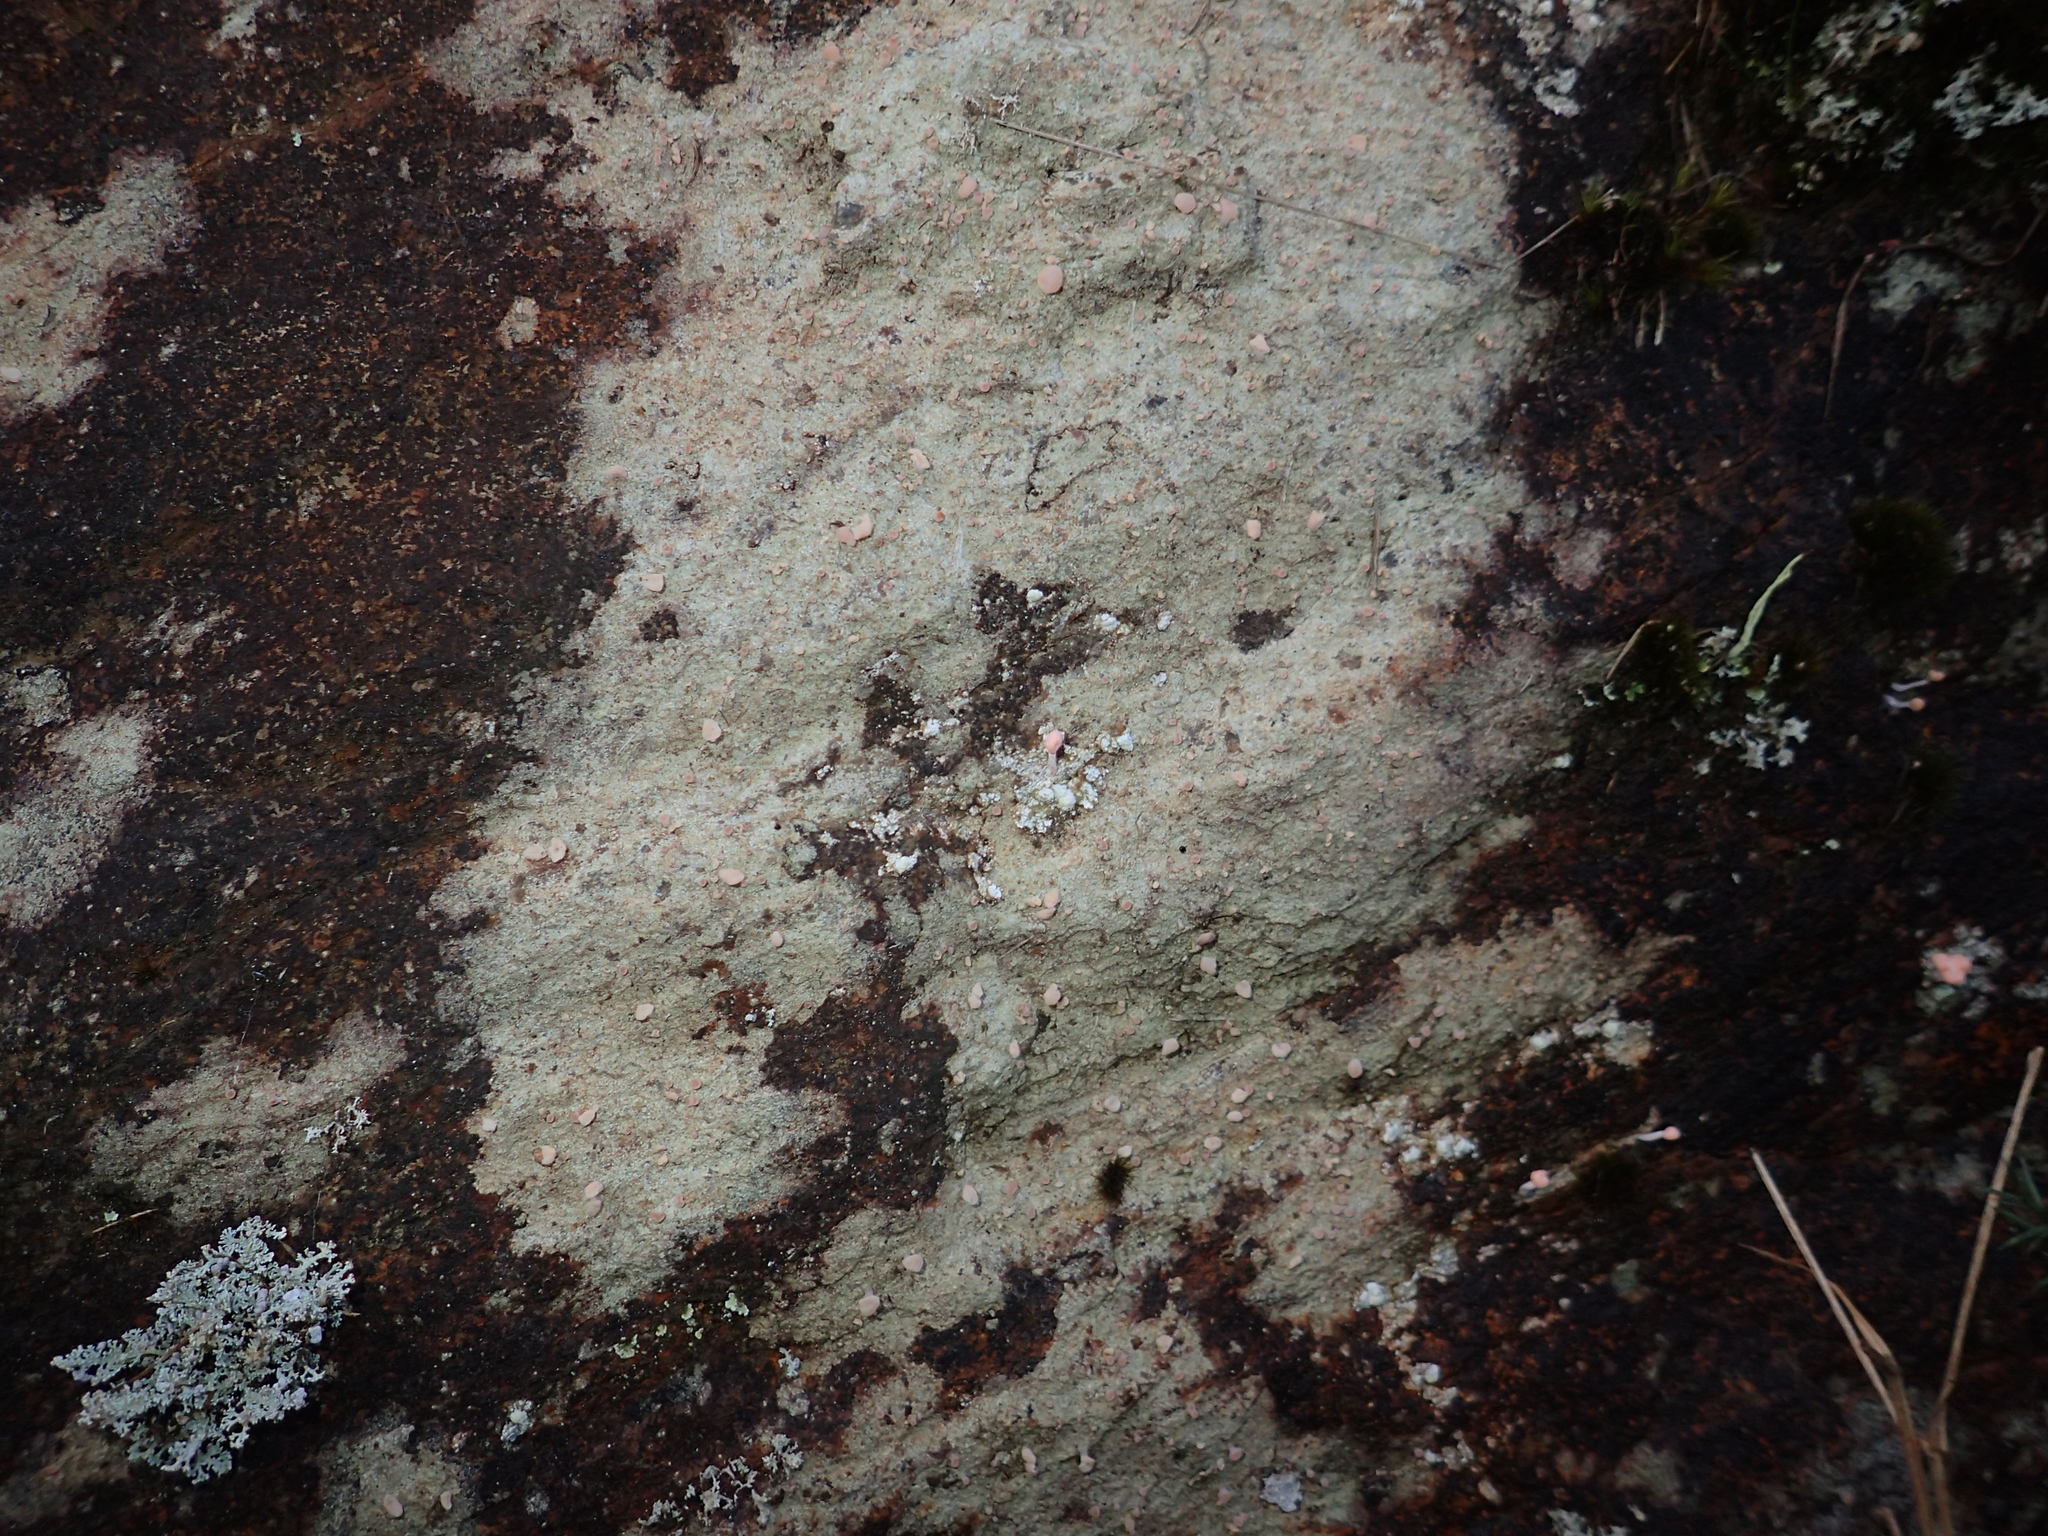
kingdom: Fungi
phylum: Ascomycota
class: Lecanoromycetes
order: Pertusariales
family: Icmadophilaceae
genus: Dibaeis
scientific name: Dibaeis arcuata
